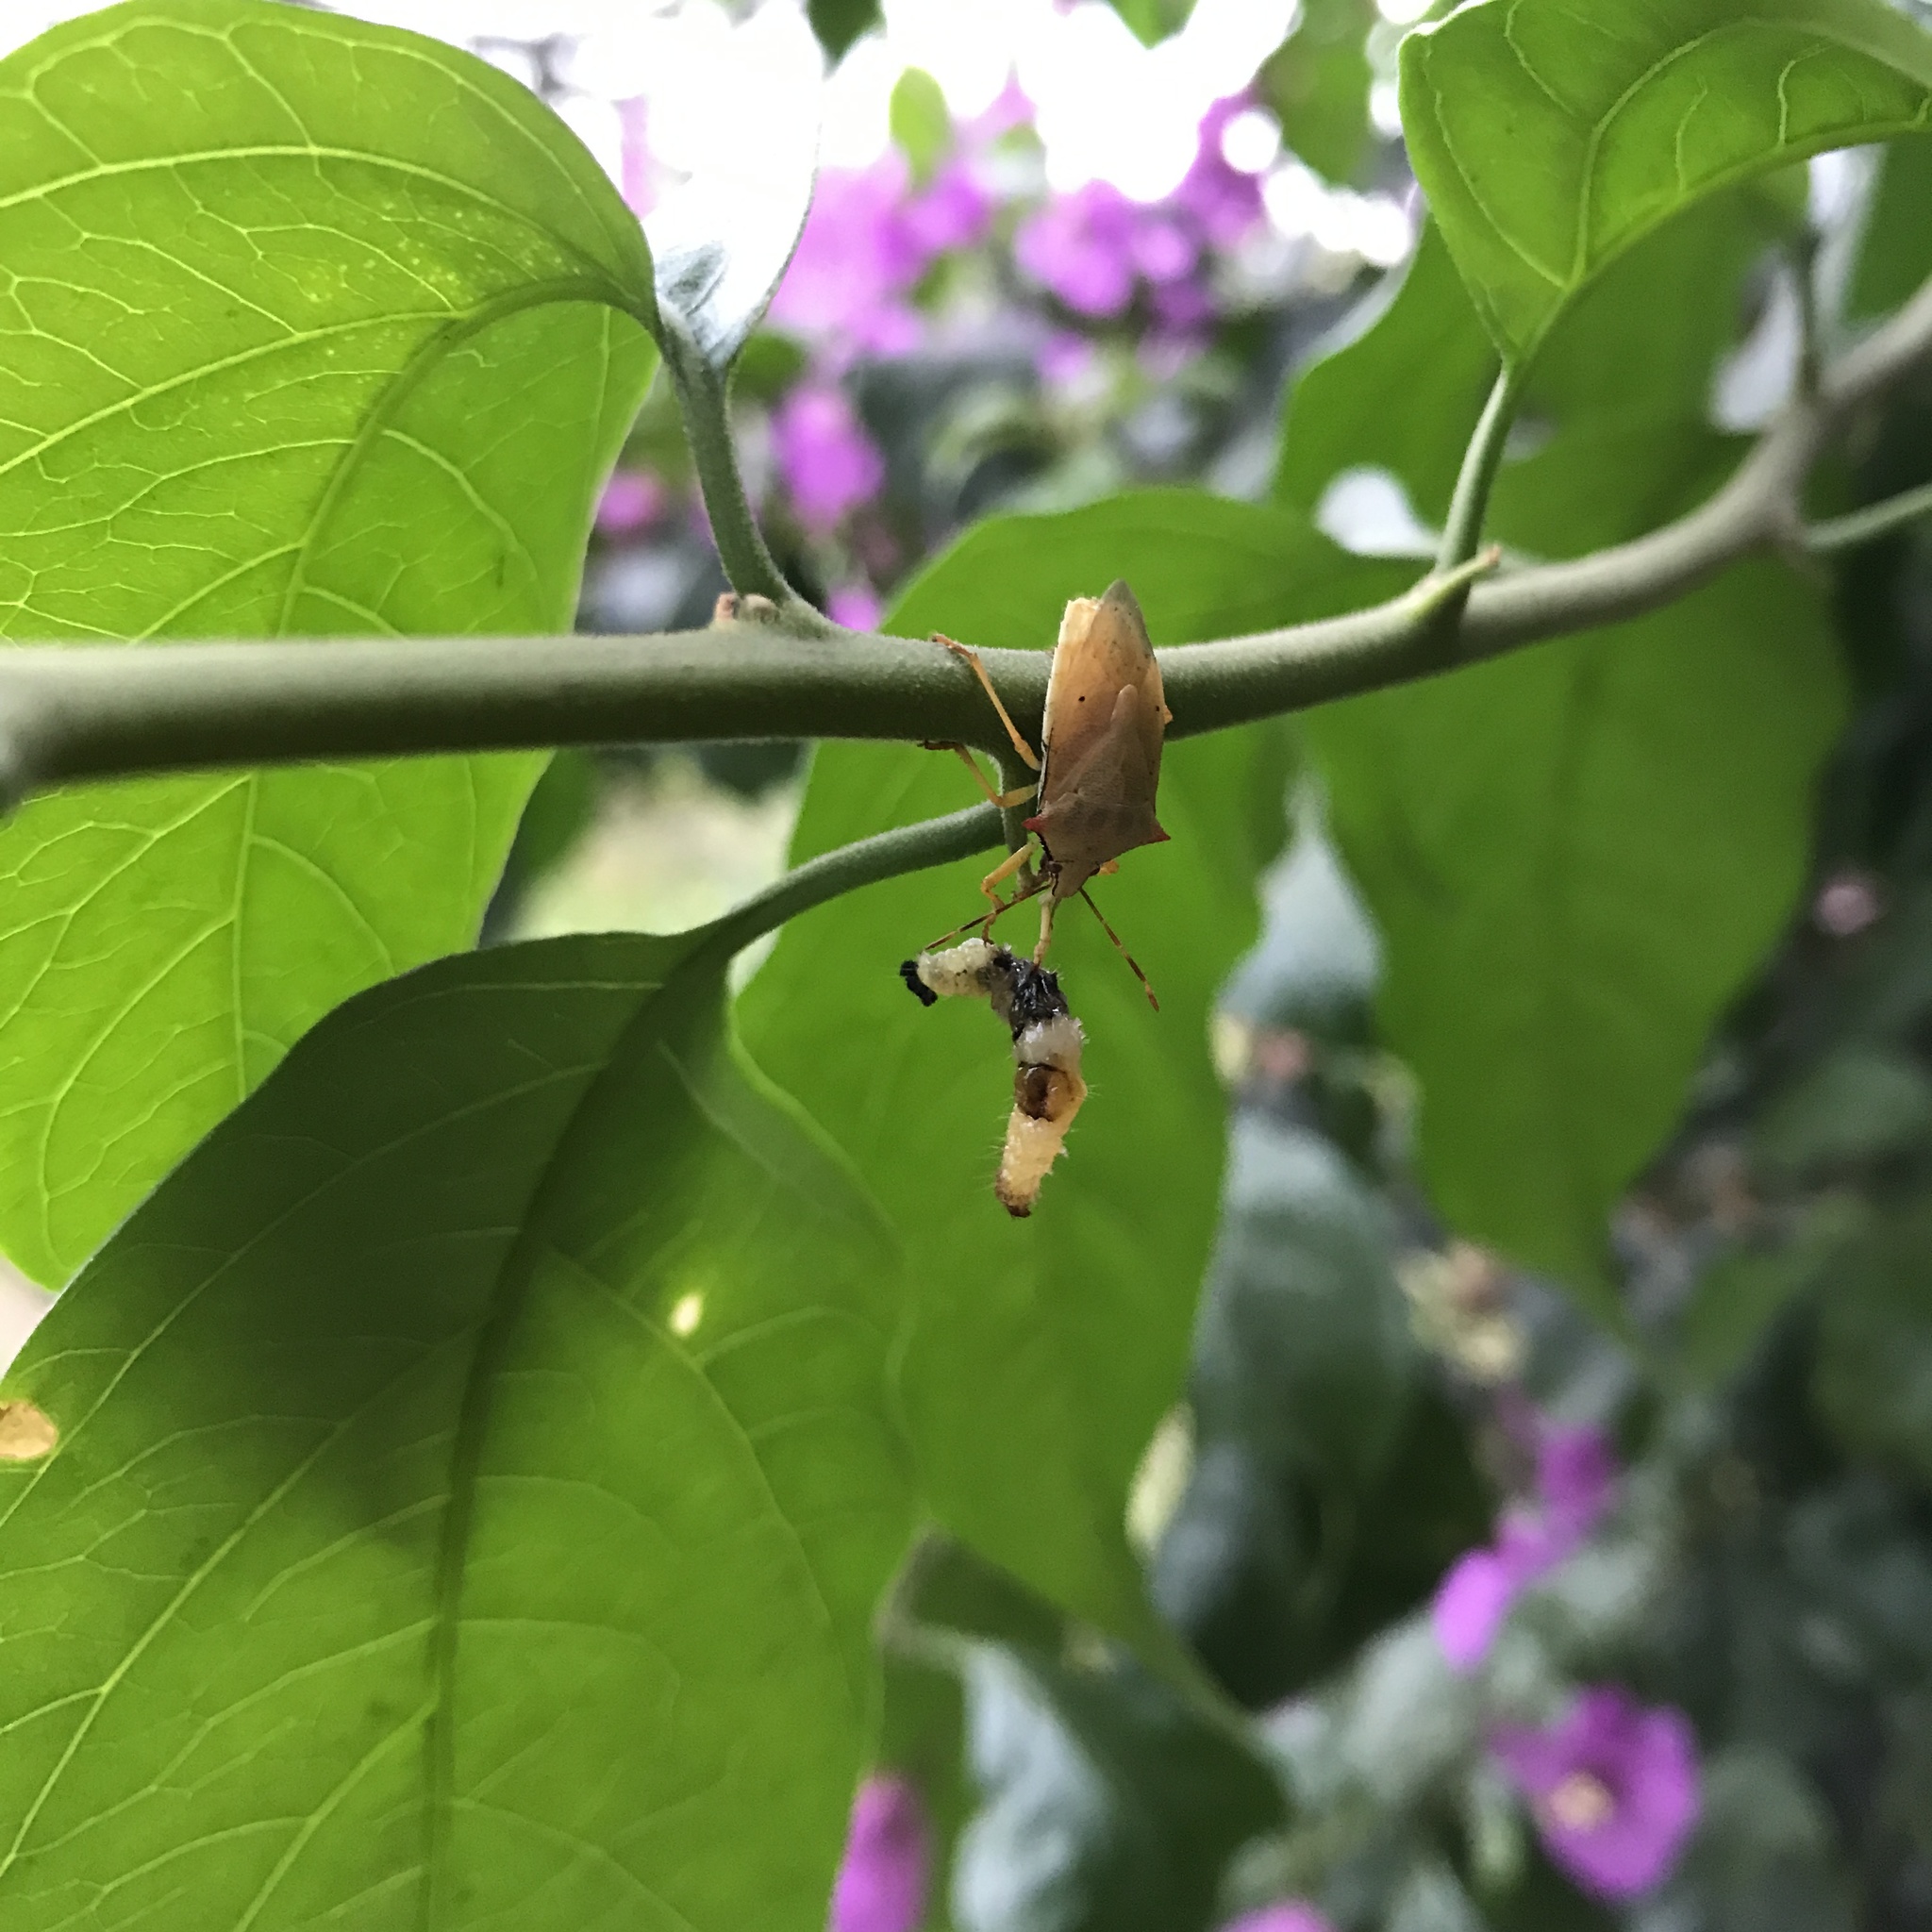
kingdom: Animalia
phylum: Arthropoda
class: Insecta
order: Hemiptera
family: Pentatomidae
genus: Brontocoris
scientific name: Brontocoris
